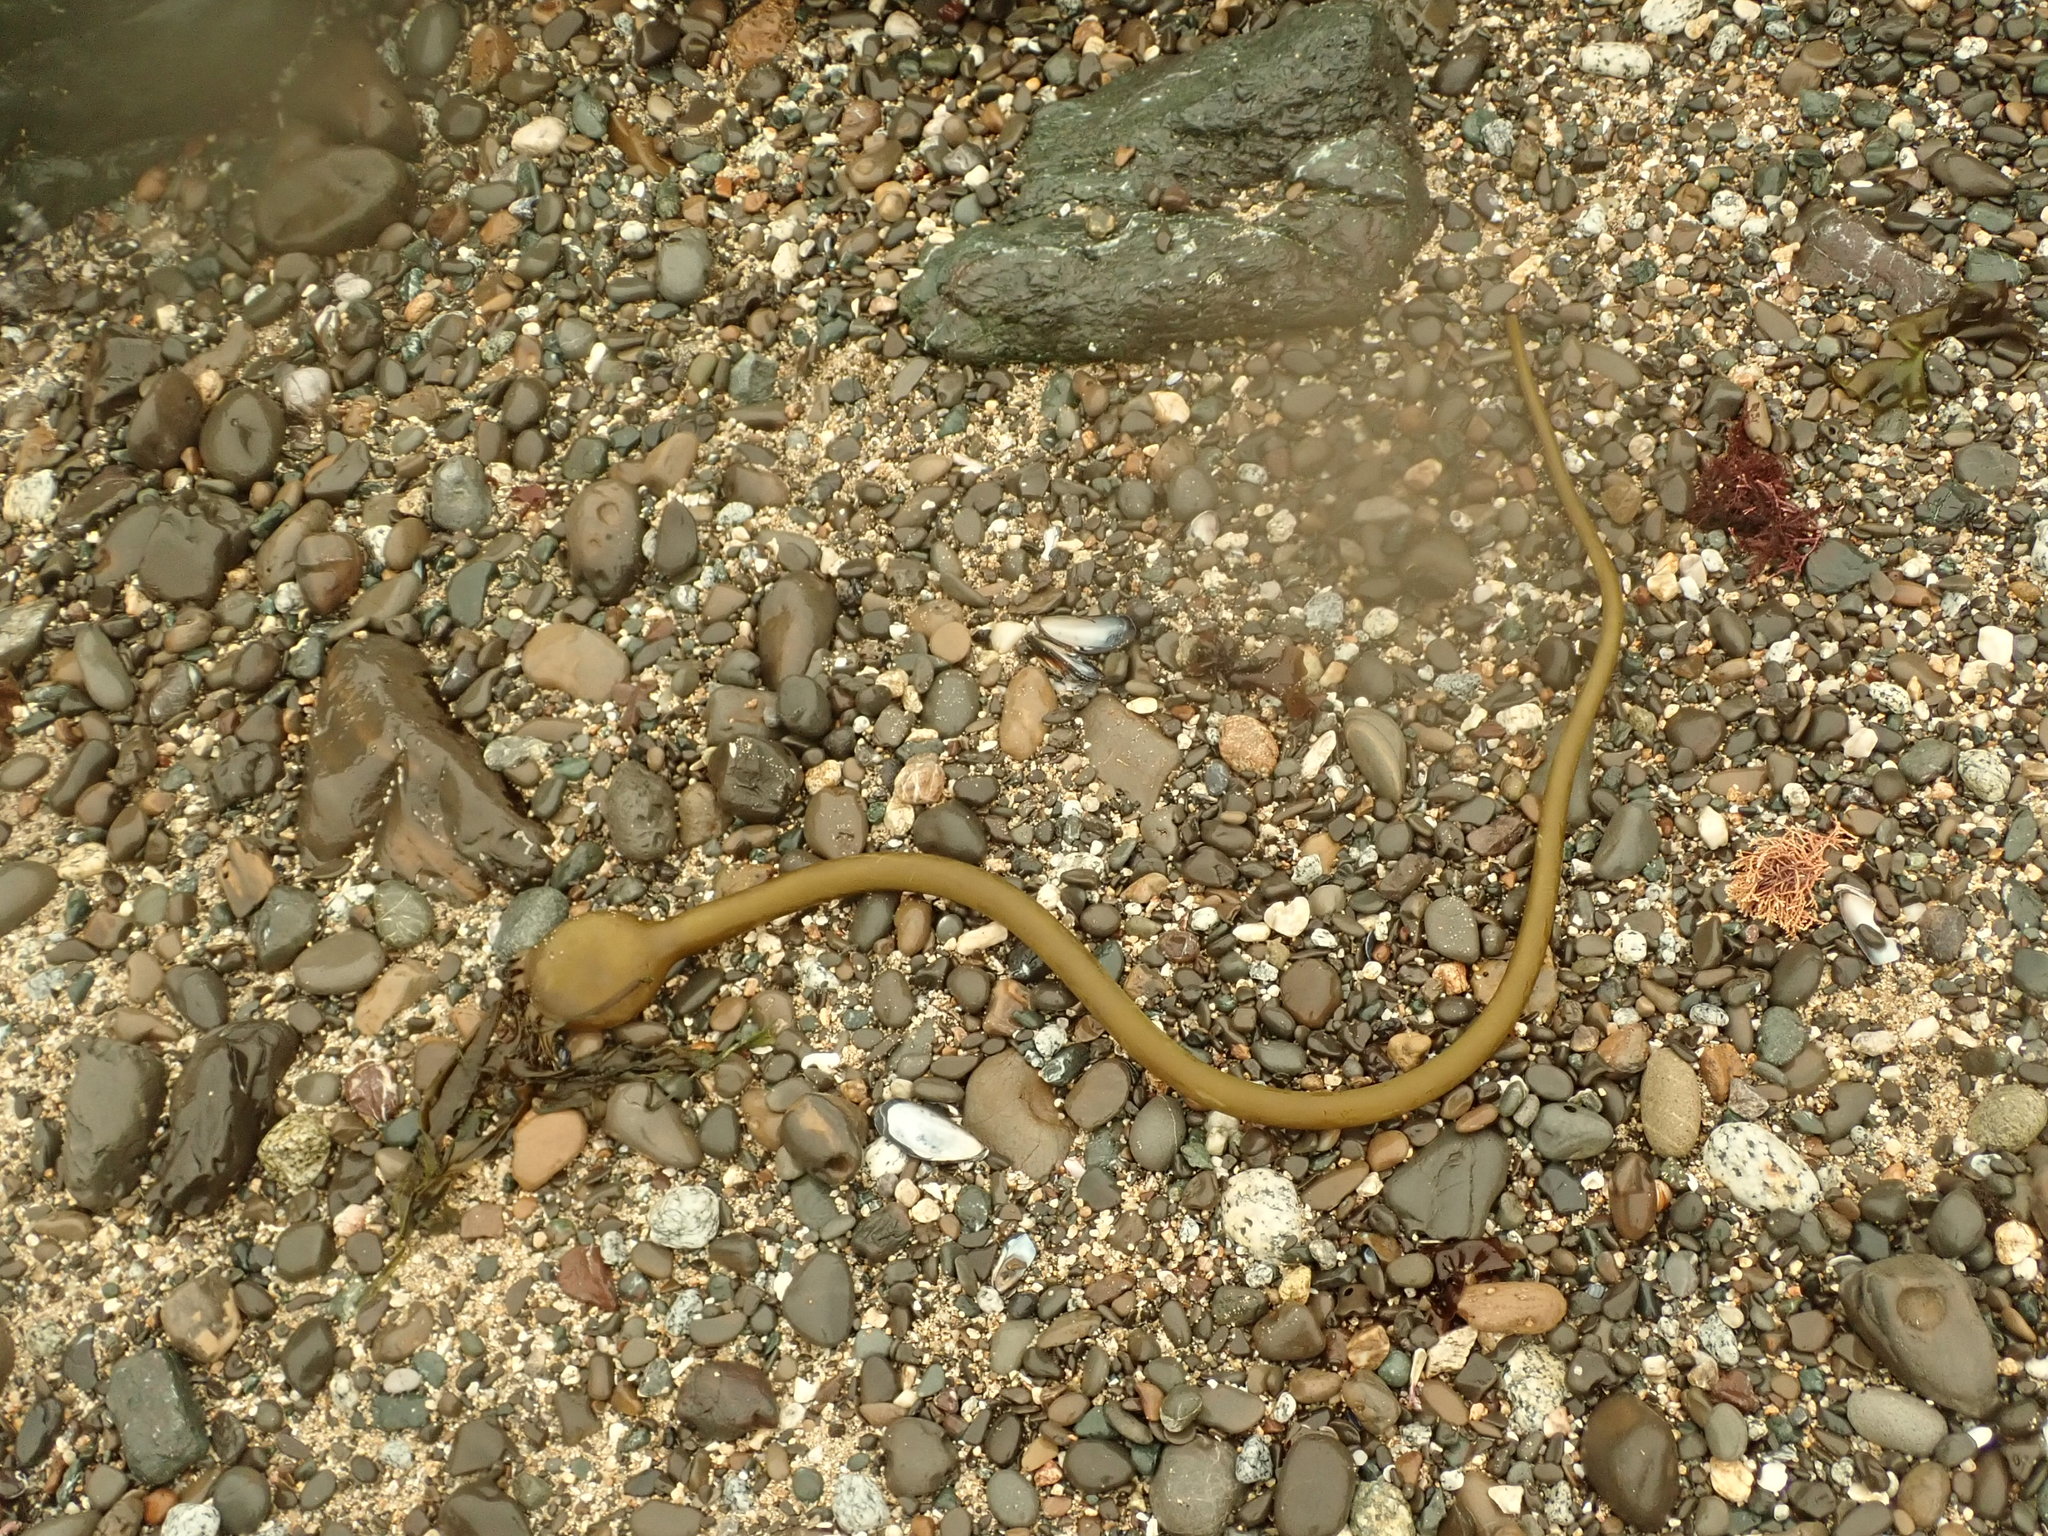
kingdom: Chromista
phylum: Ochrophyta
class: Phaeophyceae
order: Laminariales
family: Laminariaceae
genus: Nereocystis
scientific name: Nereocystis luetkeana
